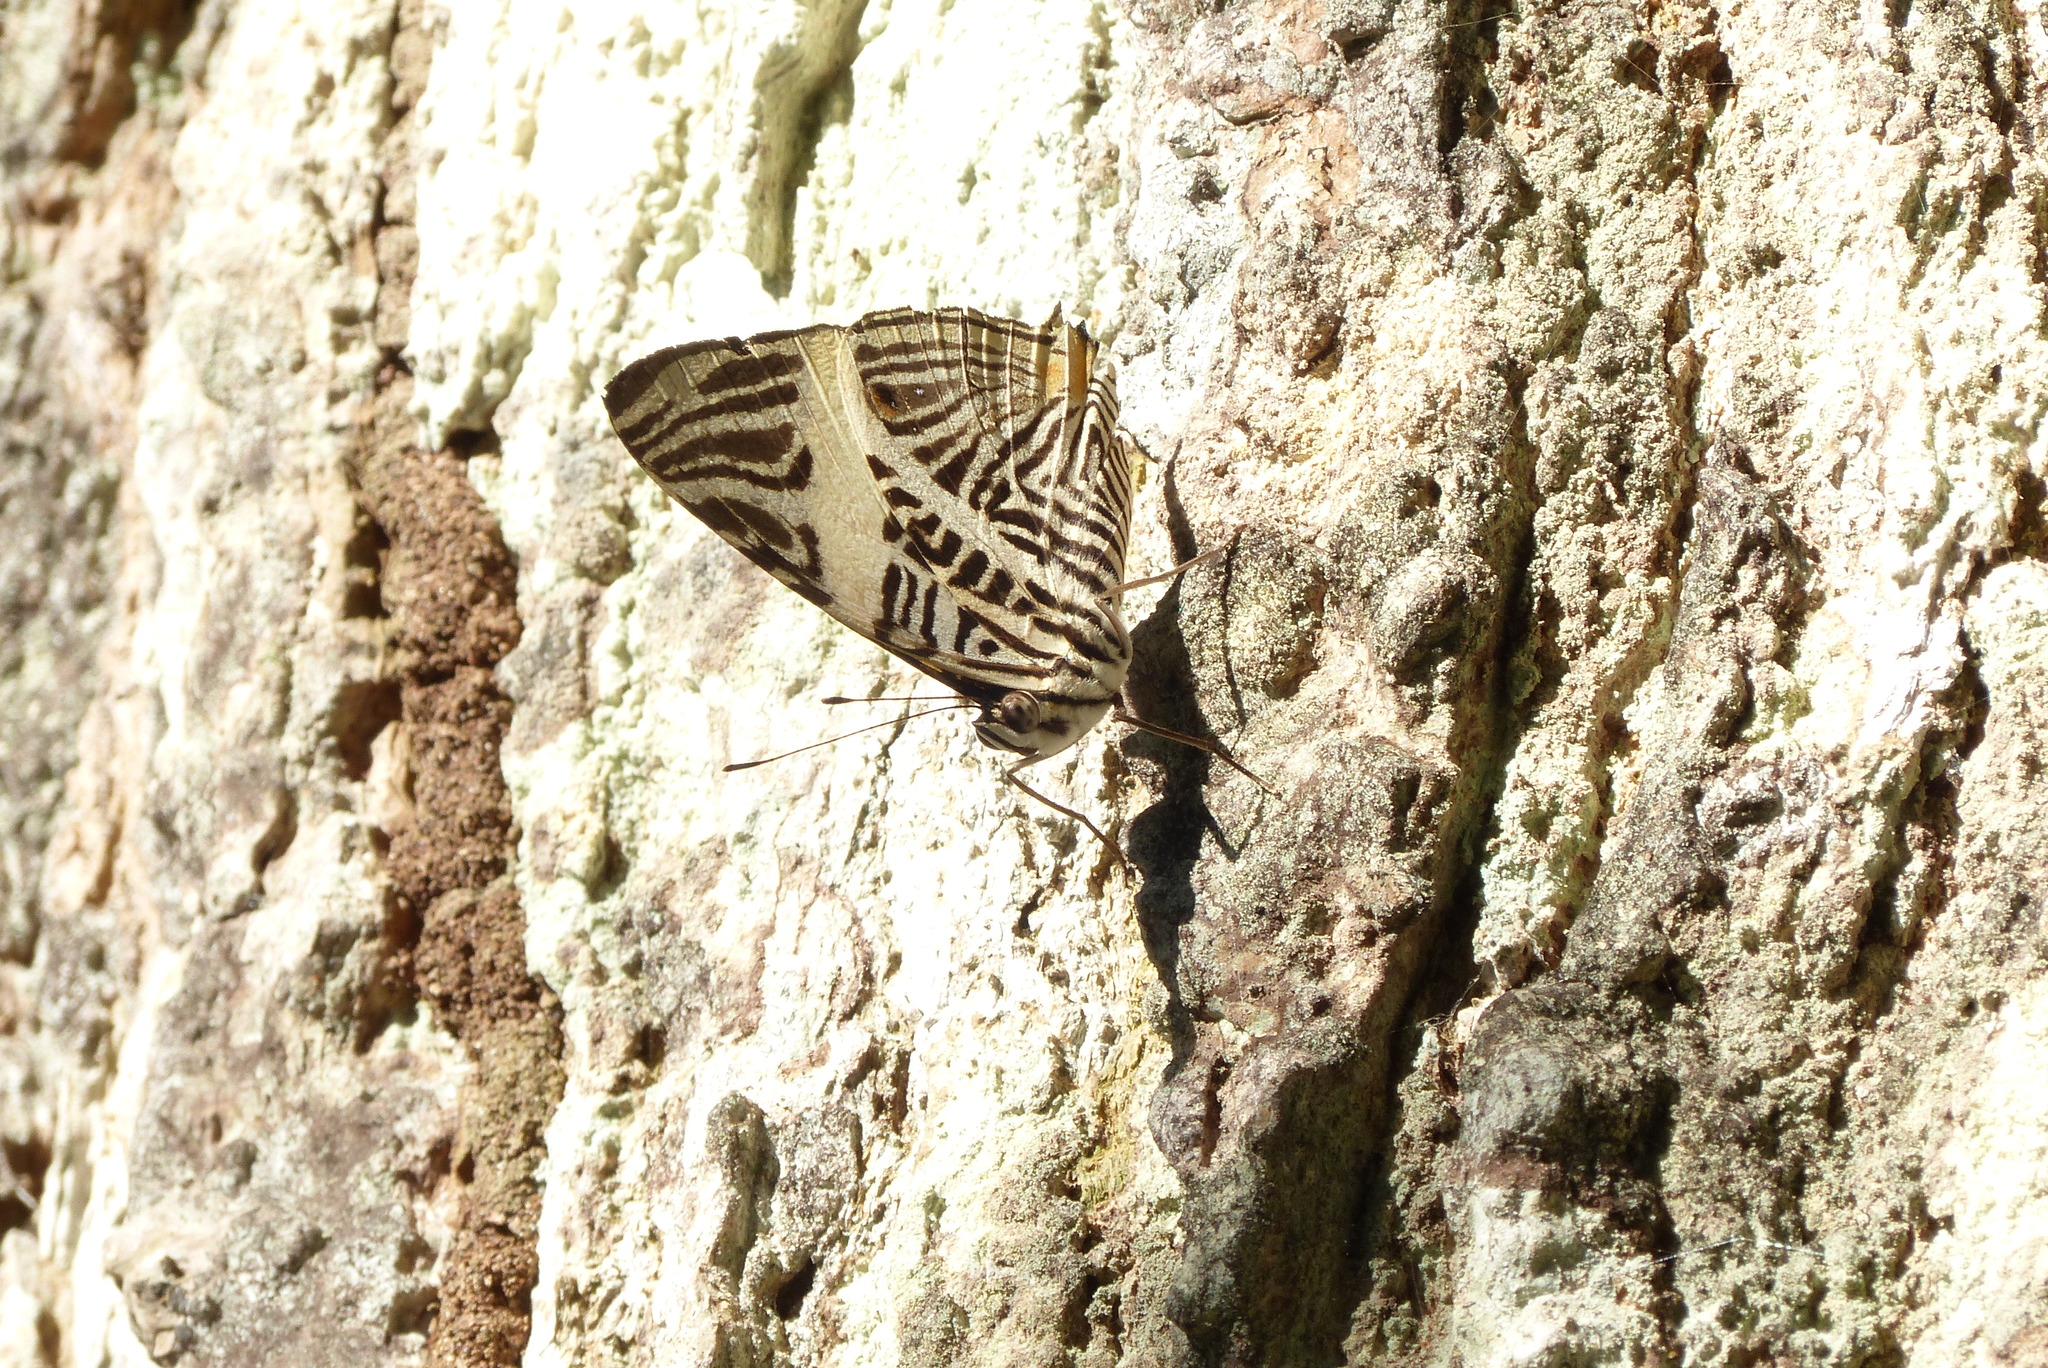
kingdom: Animalia
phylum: Arthropoda
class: Insecta
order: Lepidoptera
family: Nymphalidae
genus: Colobura
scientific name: Colobura dirce
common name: Dirce beauty
